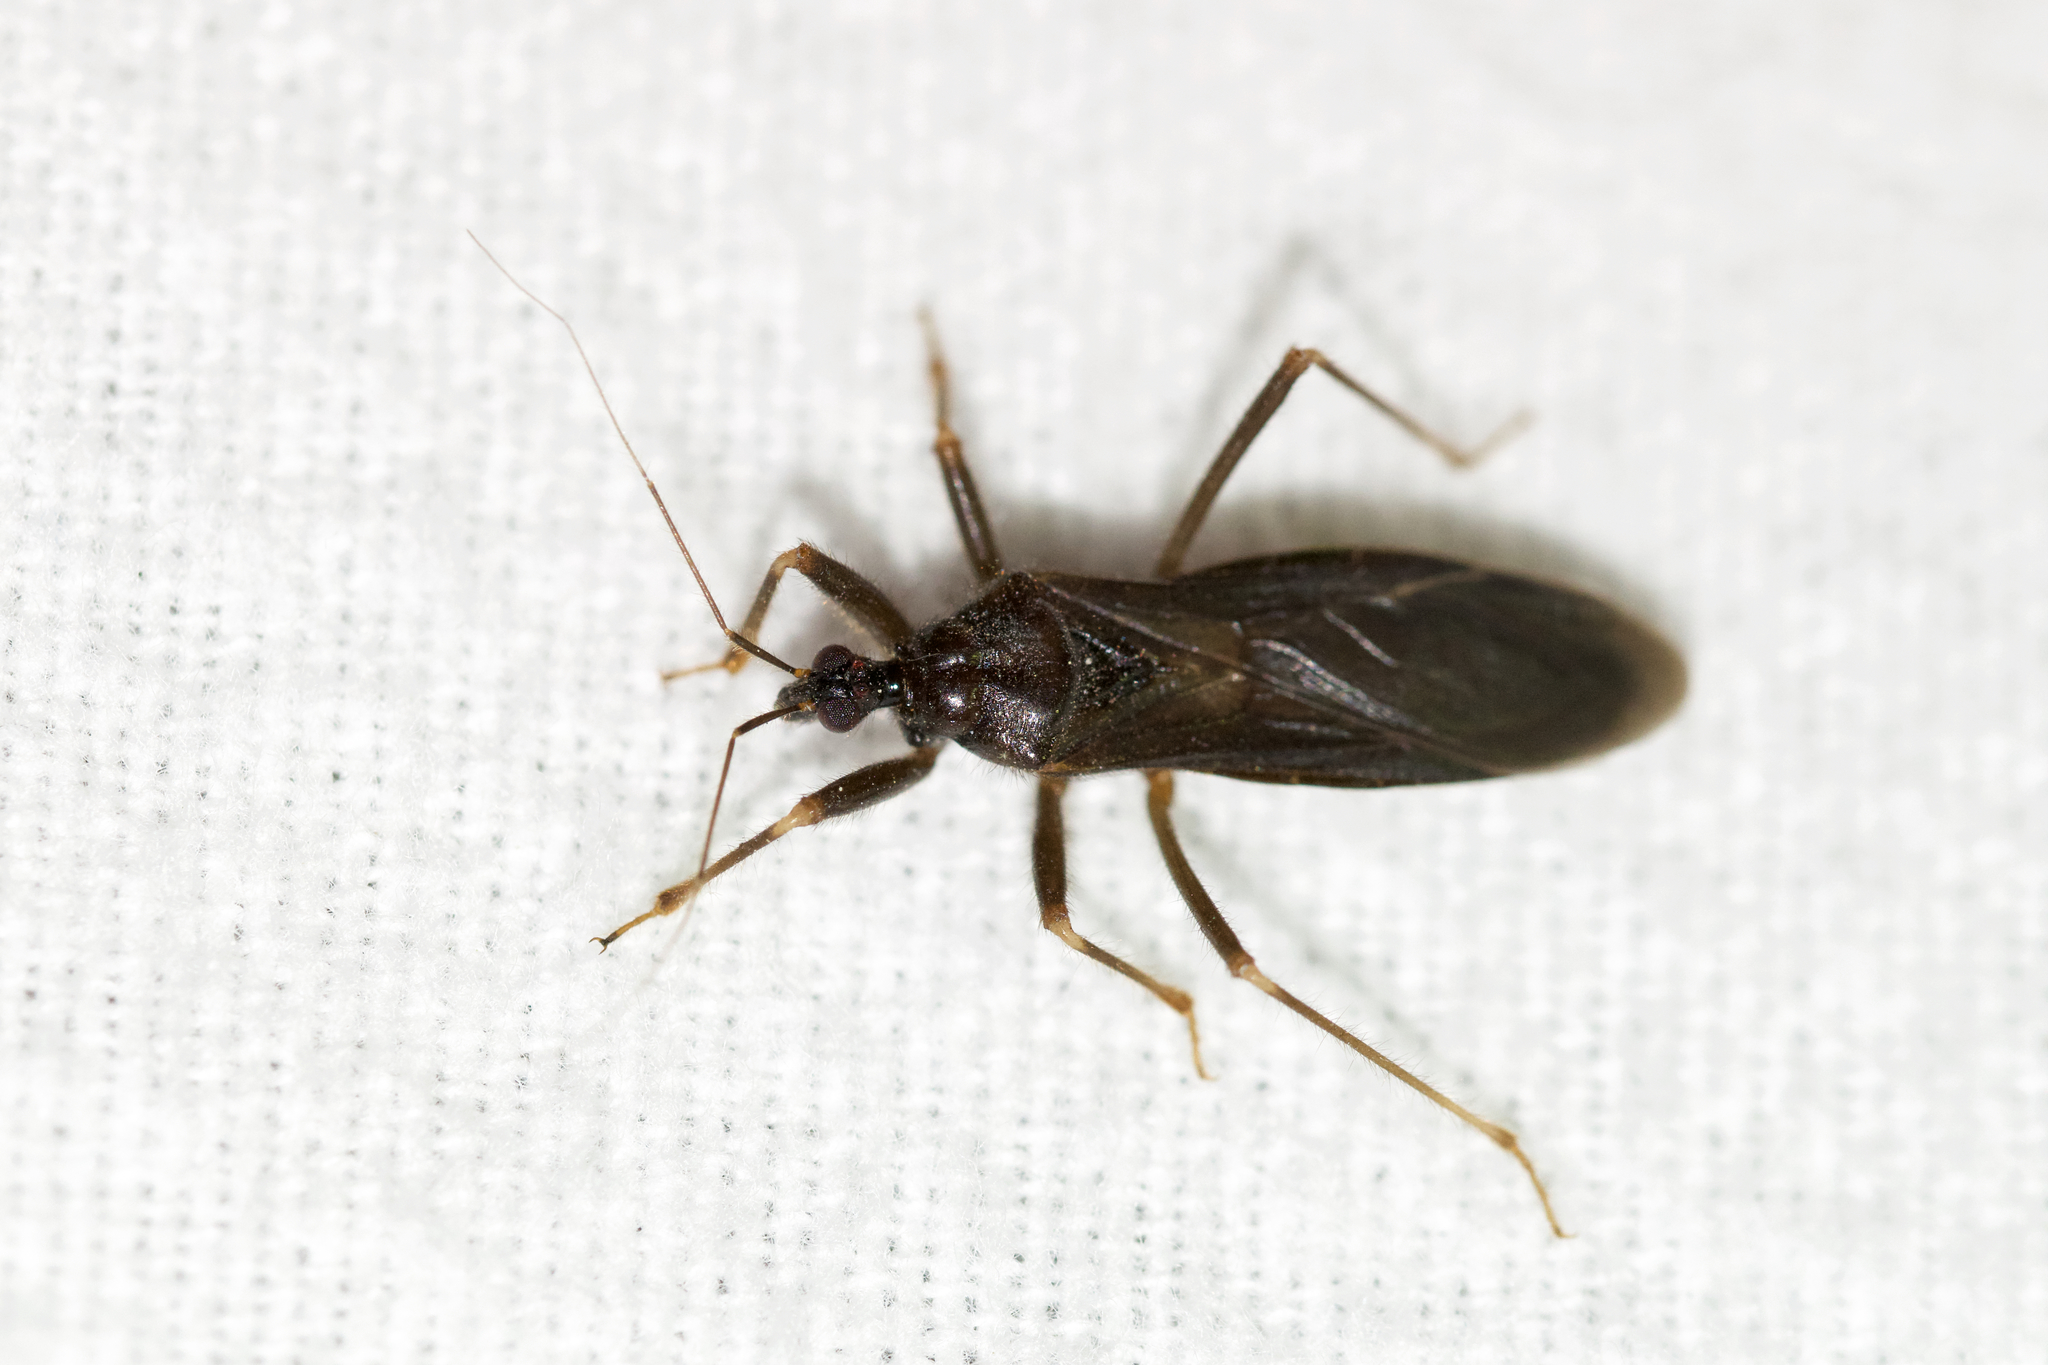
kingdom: Animalia
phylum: Arthropoda
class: Insecta
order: Hemiptera
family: Reduviidae
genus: Reduvius
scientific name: Reduvius personatus
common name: Masked hunter
